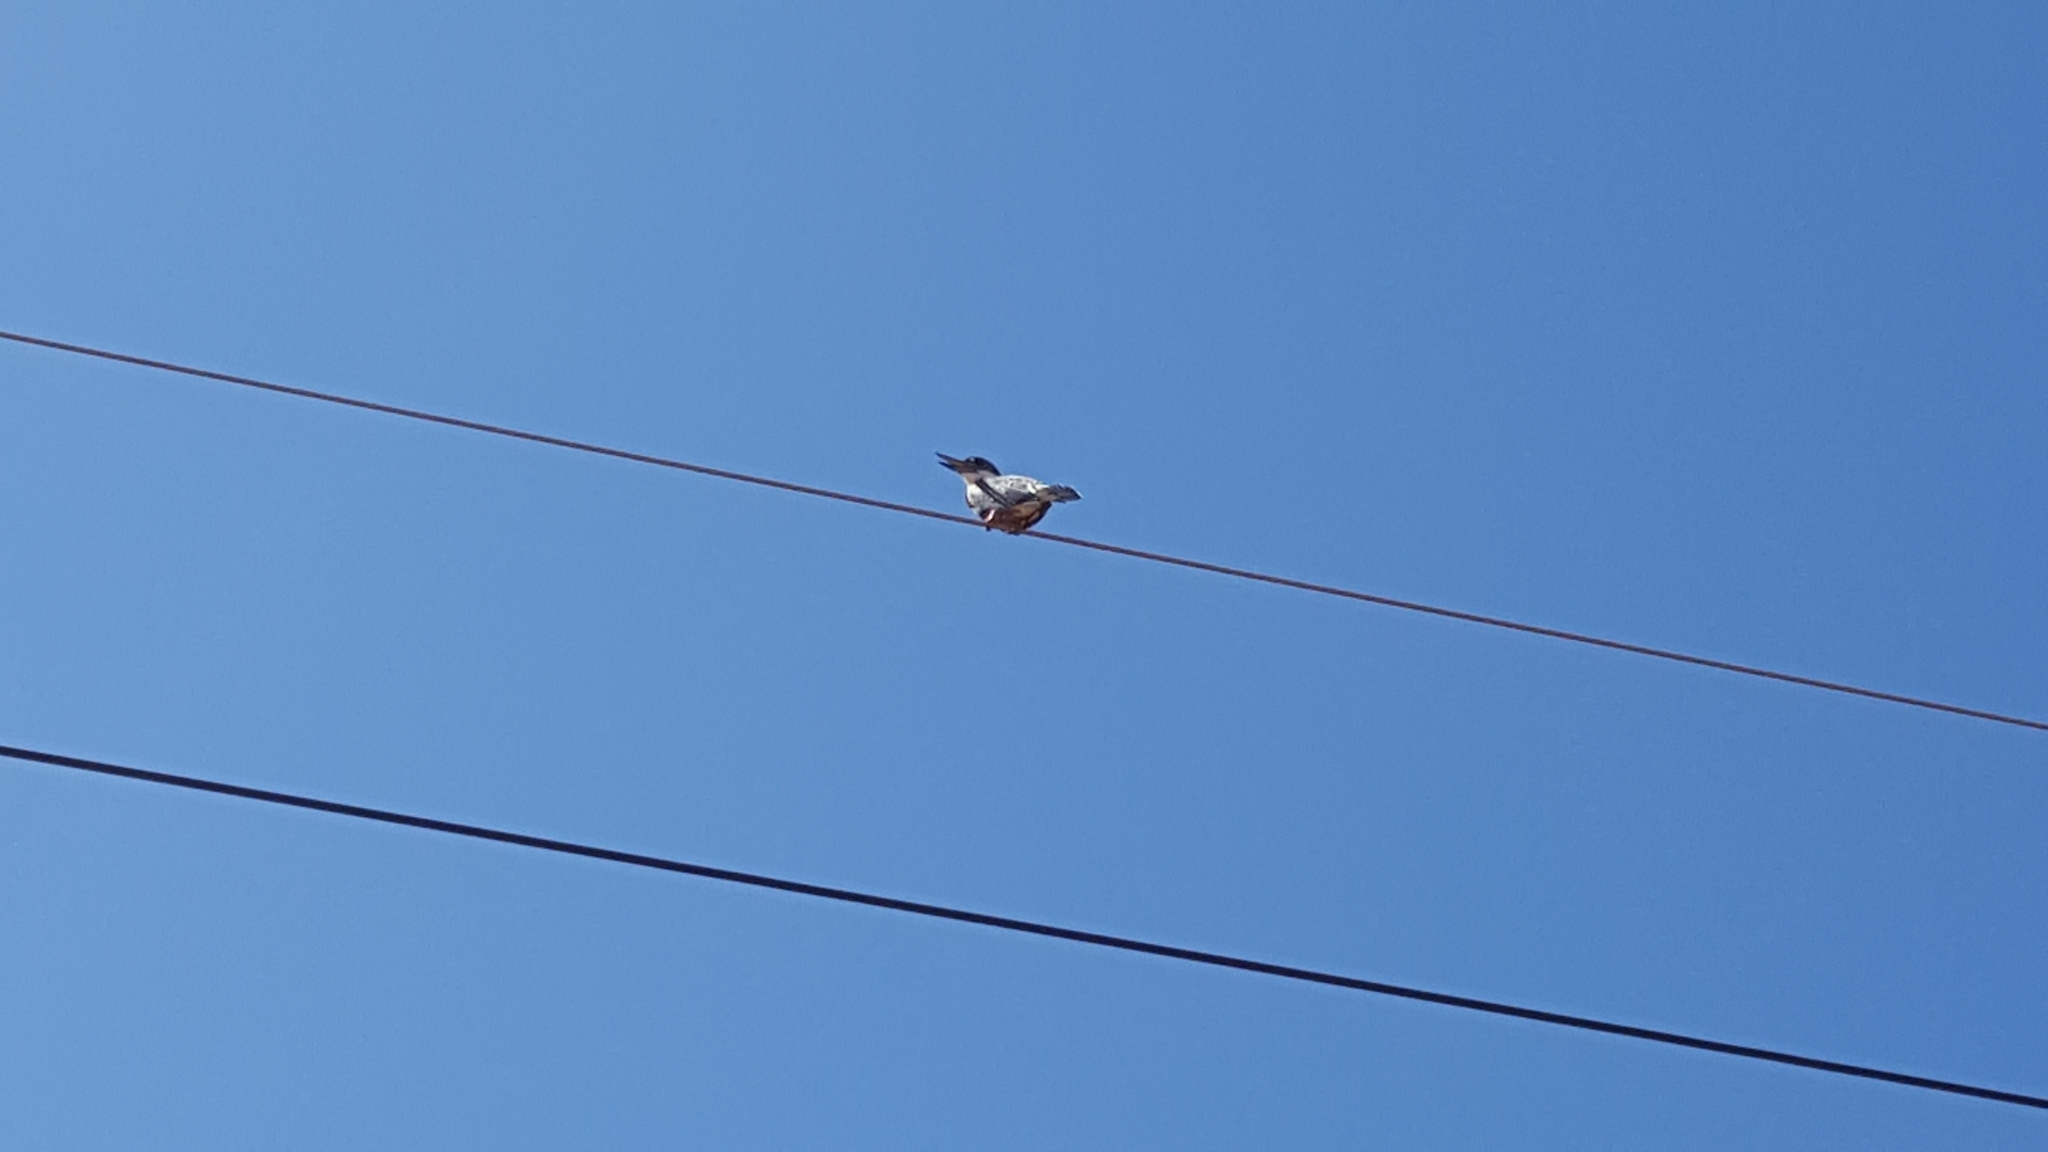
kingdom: Animalia
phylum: Chordata
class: Aves
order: Coraciiformes
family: Alcedinidae
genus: Megaceryle
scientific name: Megaceryle torquata
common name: Ringed kingfisher
